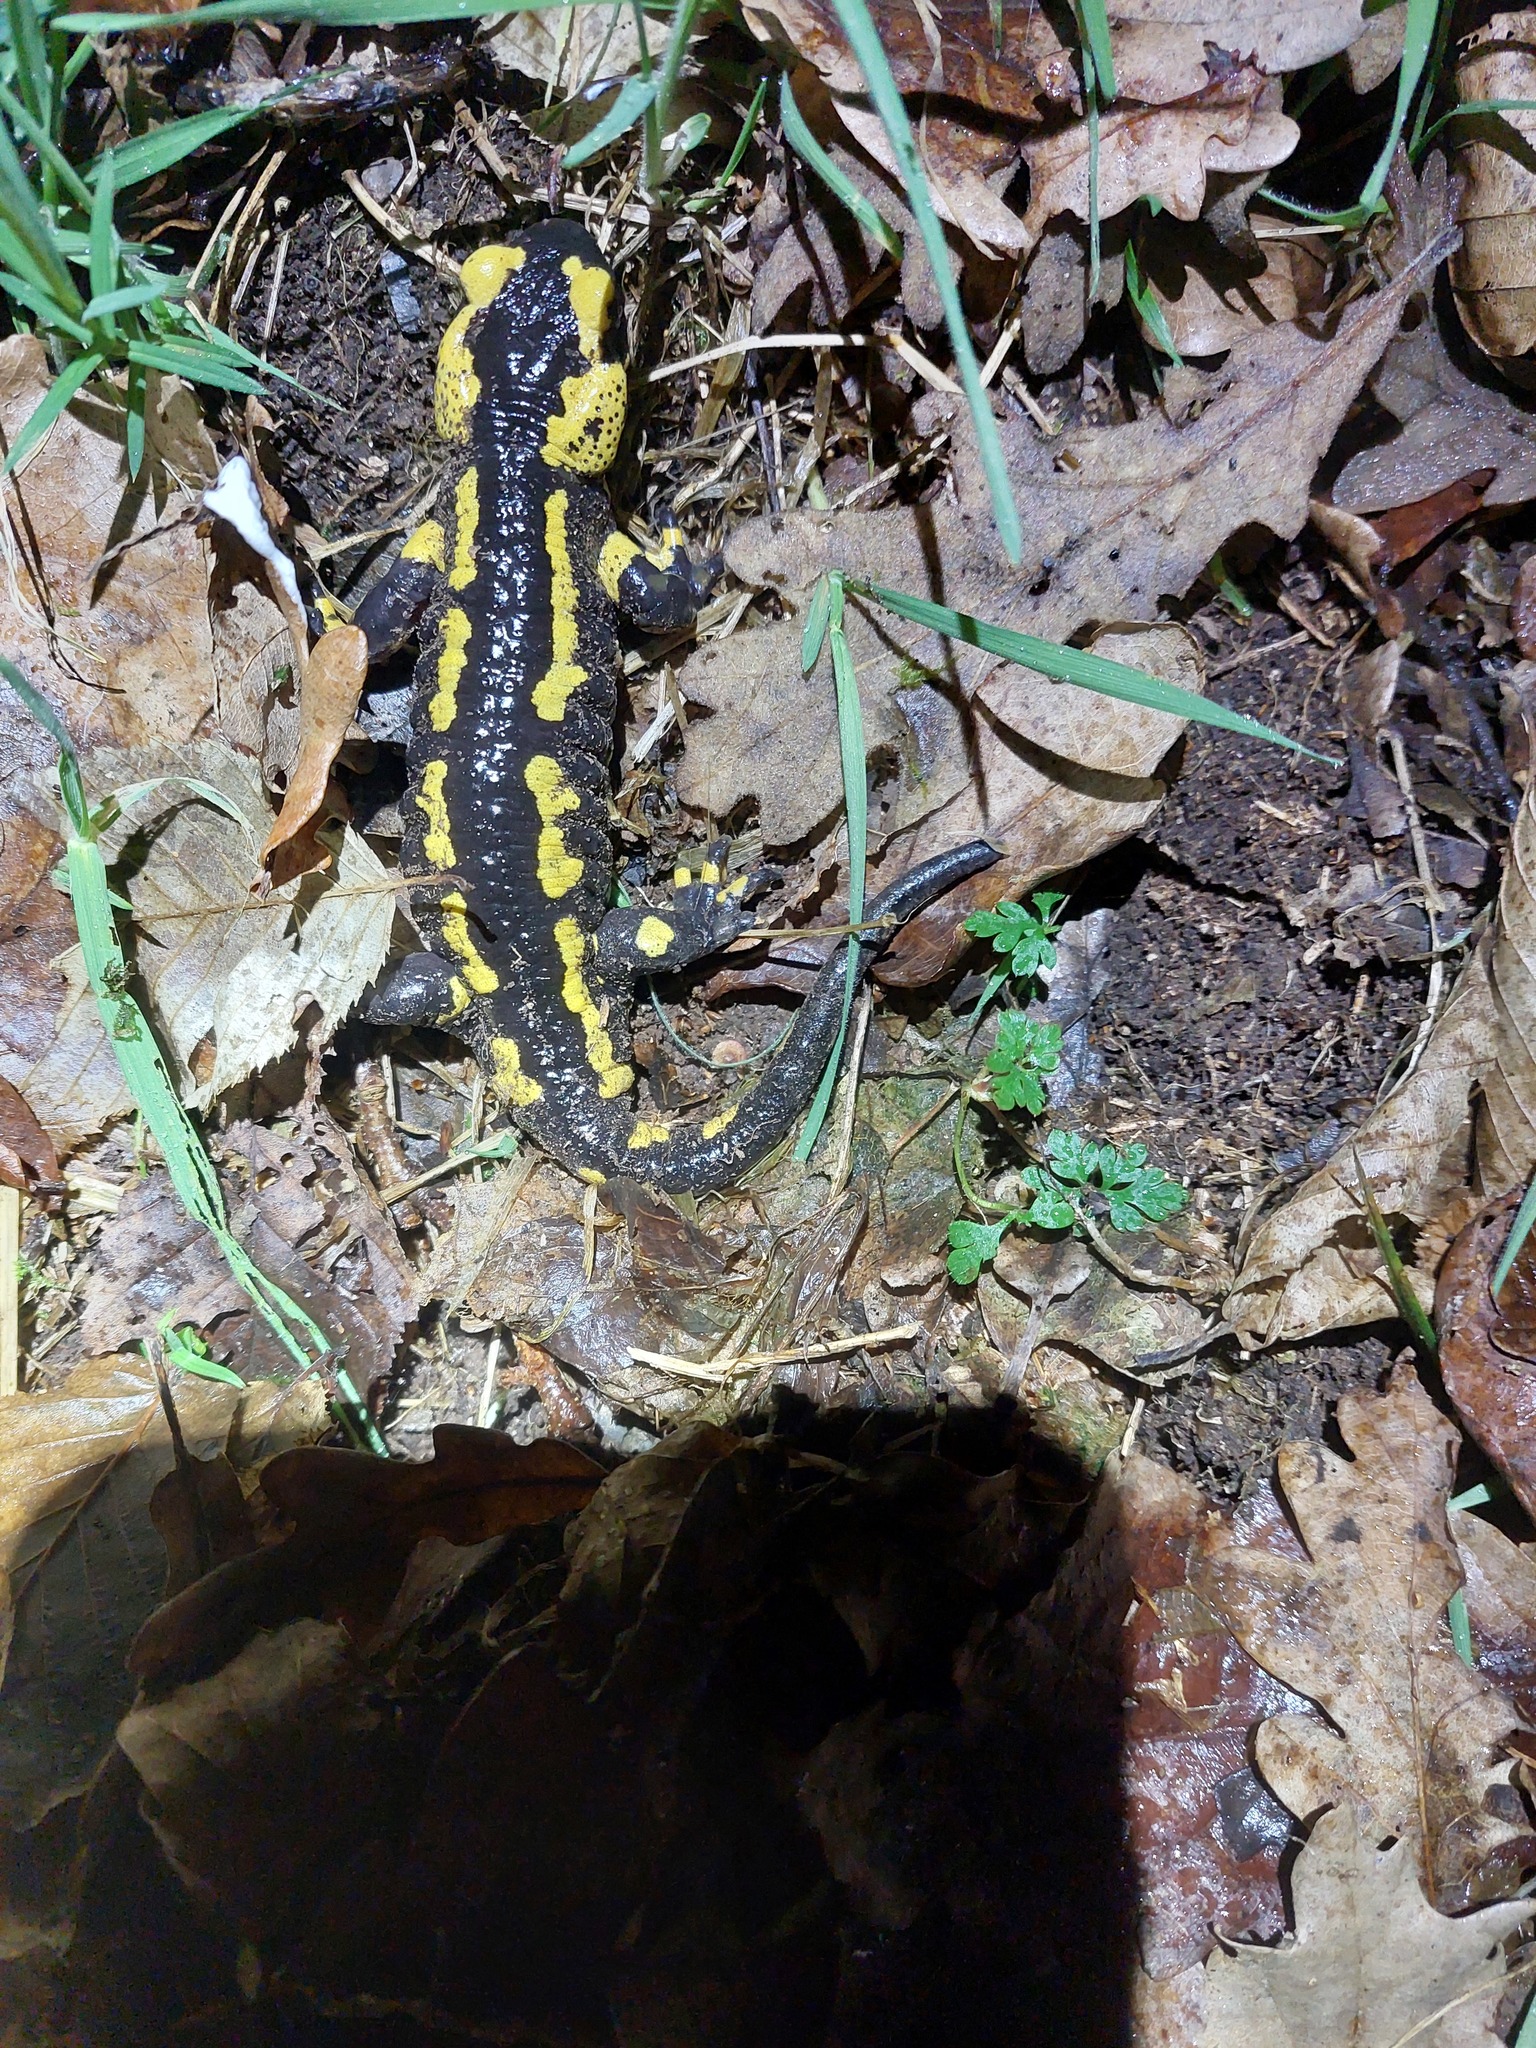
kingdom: Animalia
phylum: Chordata
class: Amphibia
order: Caudata
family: Salamandridae
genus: Salamandra
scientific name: Salamandra salamandra
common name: Fire salamander
